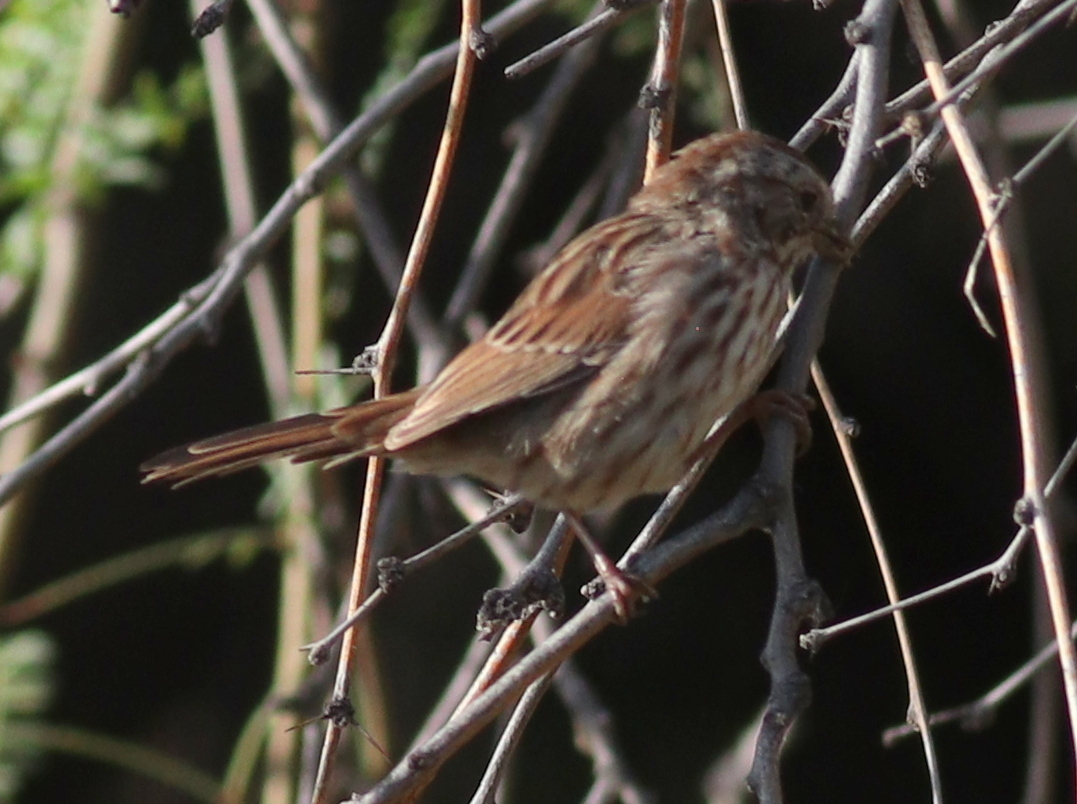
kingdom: Animalia
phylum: Chordata
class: Aves
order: Passeriformes
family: Passerellidae
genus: Melospiza
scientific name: Melospiza melodia
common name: Song sparrow
